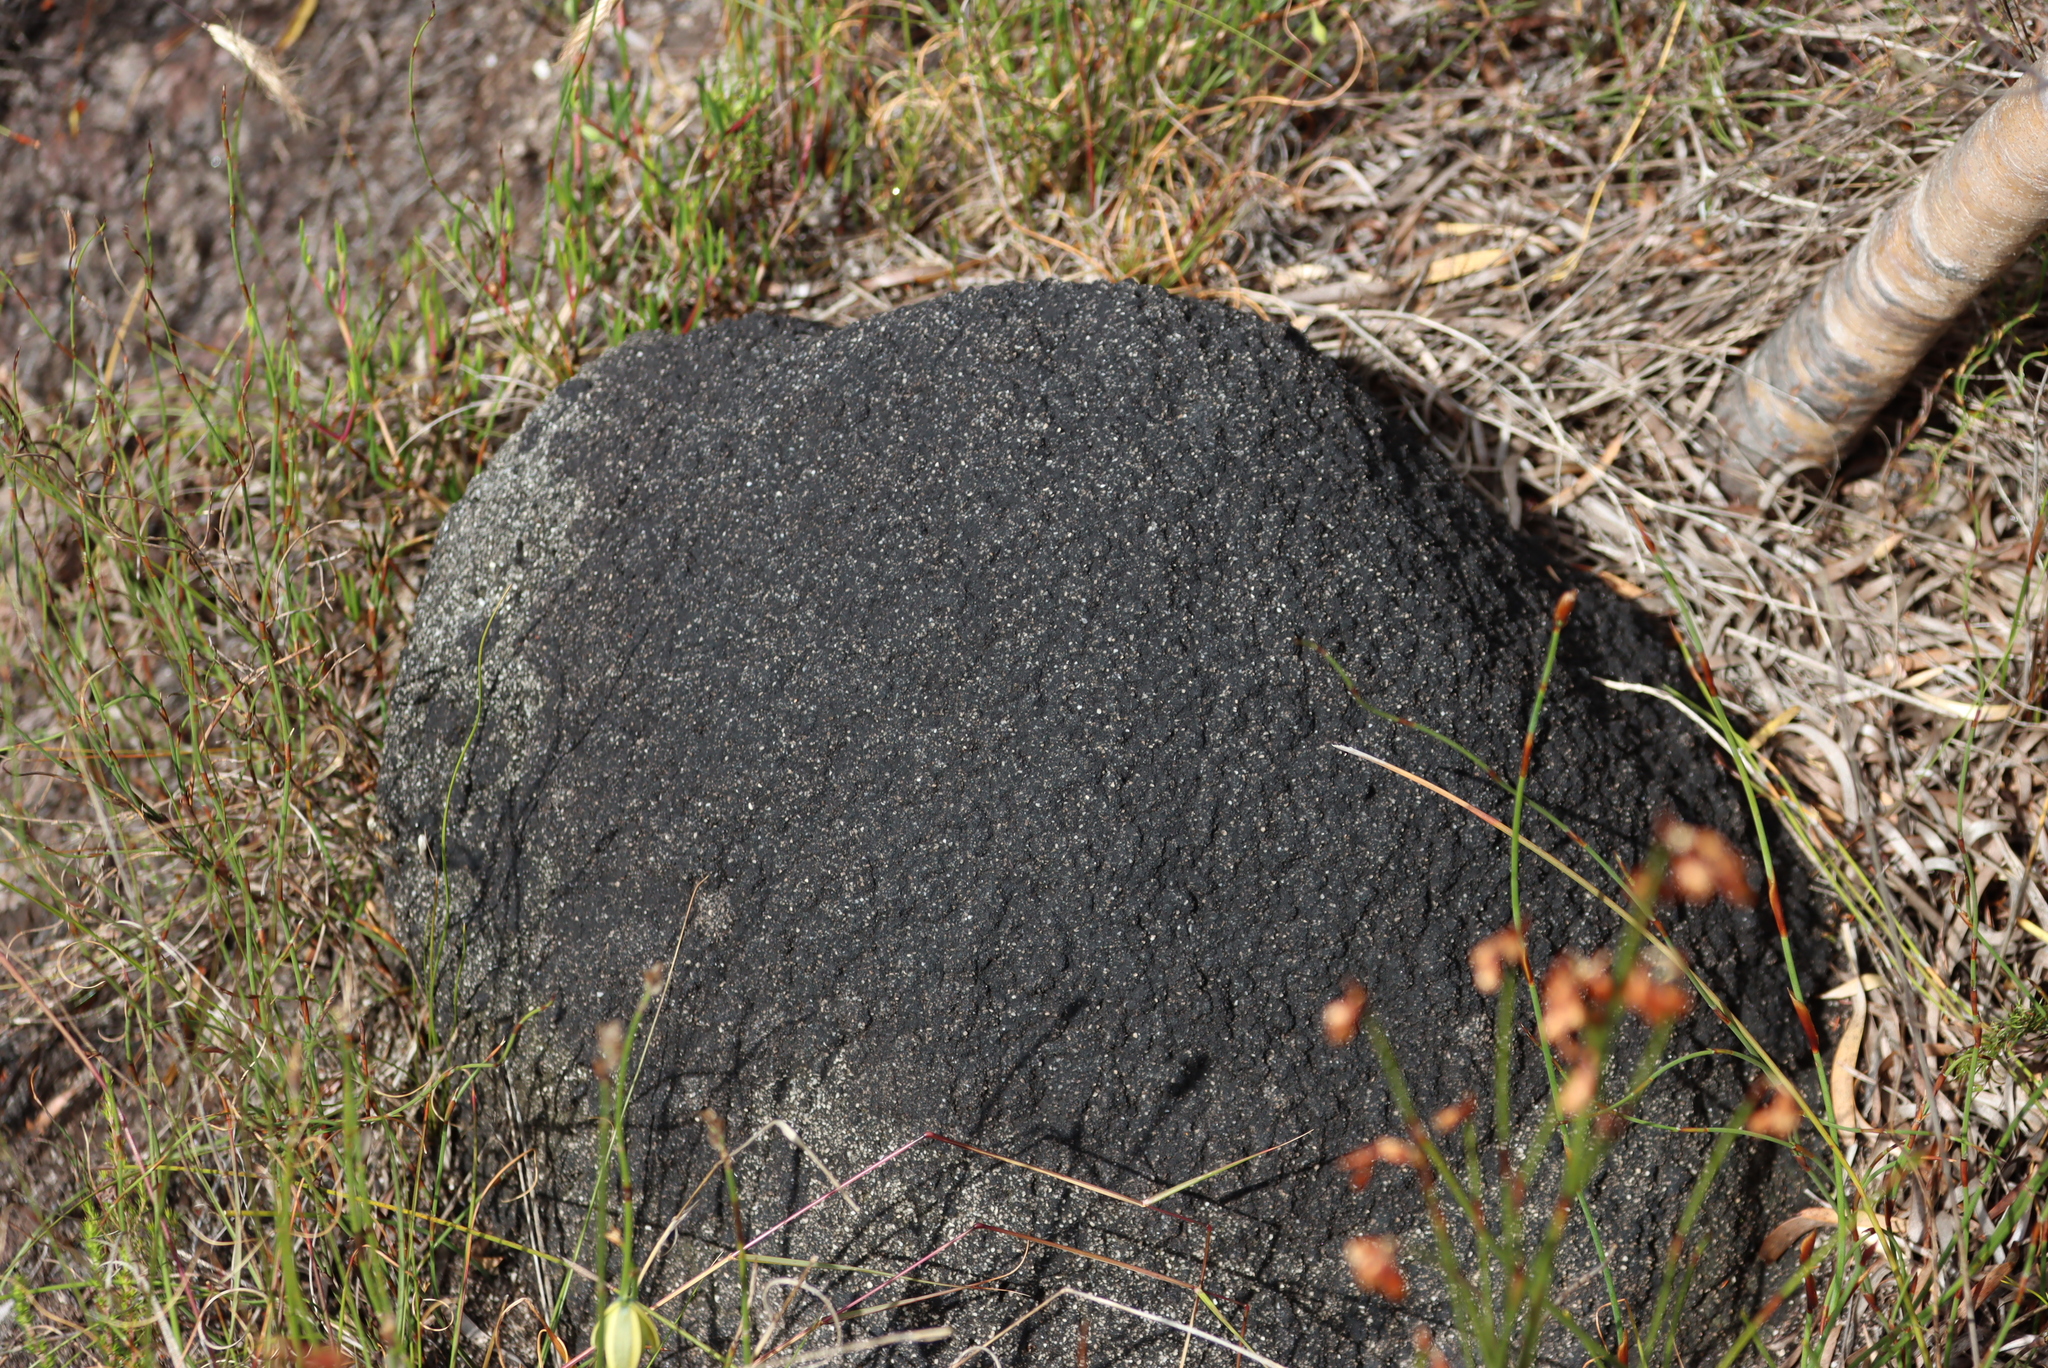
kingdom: Animalia
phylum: Arthropoda
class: Insecta
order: Blattodea
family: Termitidae
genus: Amitermes
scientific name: Amitermes hastatus
